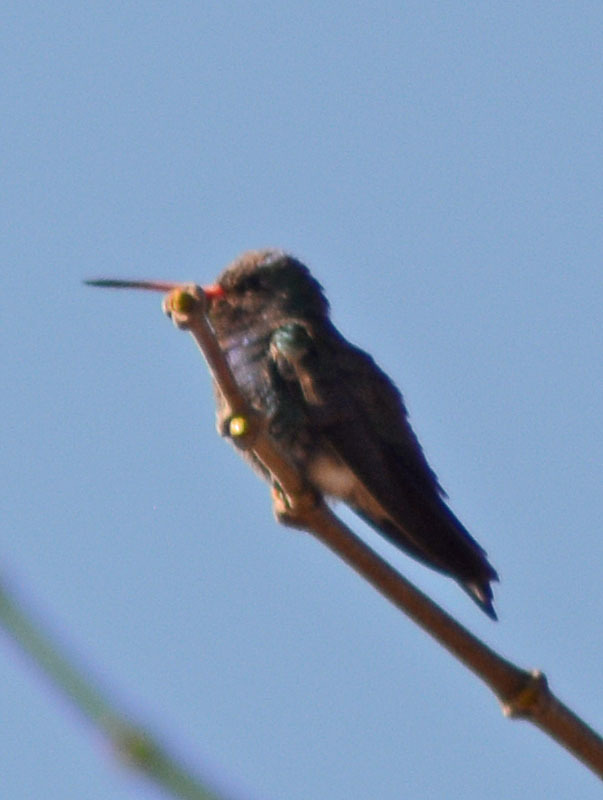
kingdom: Animalia
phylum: Chordata
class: Aves
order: Apodiformes
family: Trochilidae
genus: Cynanthus
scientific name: Cynanthus latirostris
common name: Broad-billed hummingbird
